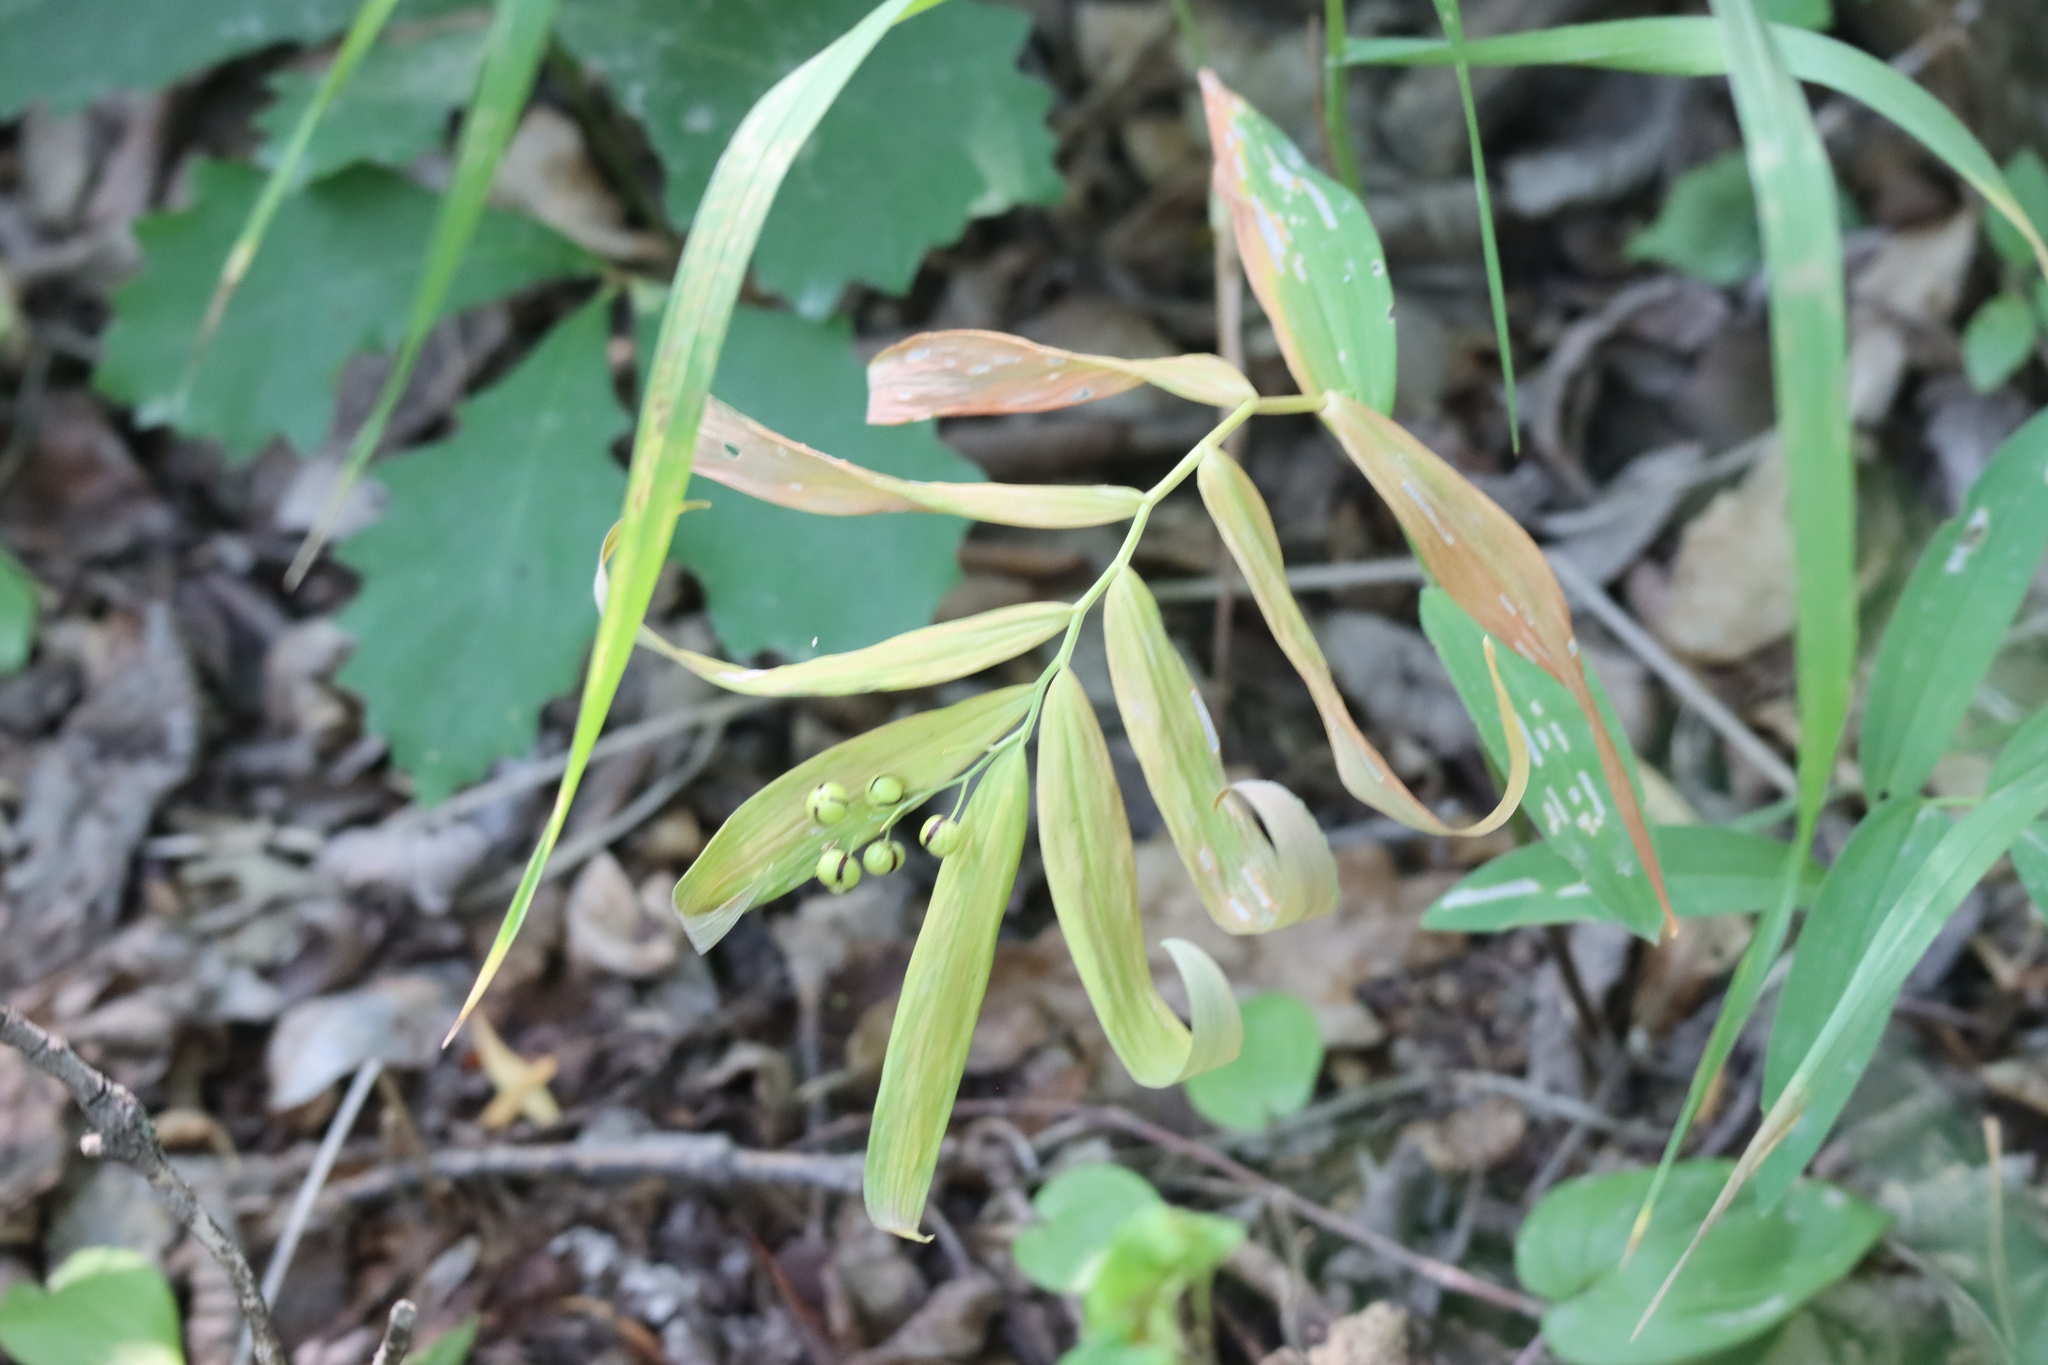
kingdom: Plantae
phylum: Tracheophyta
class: Liliopsida
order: Asparagales
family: Asparagaceae
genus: Maianthemum
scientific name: Maianthemum stellatum
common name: Little false solomon's seal
